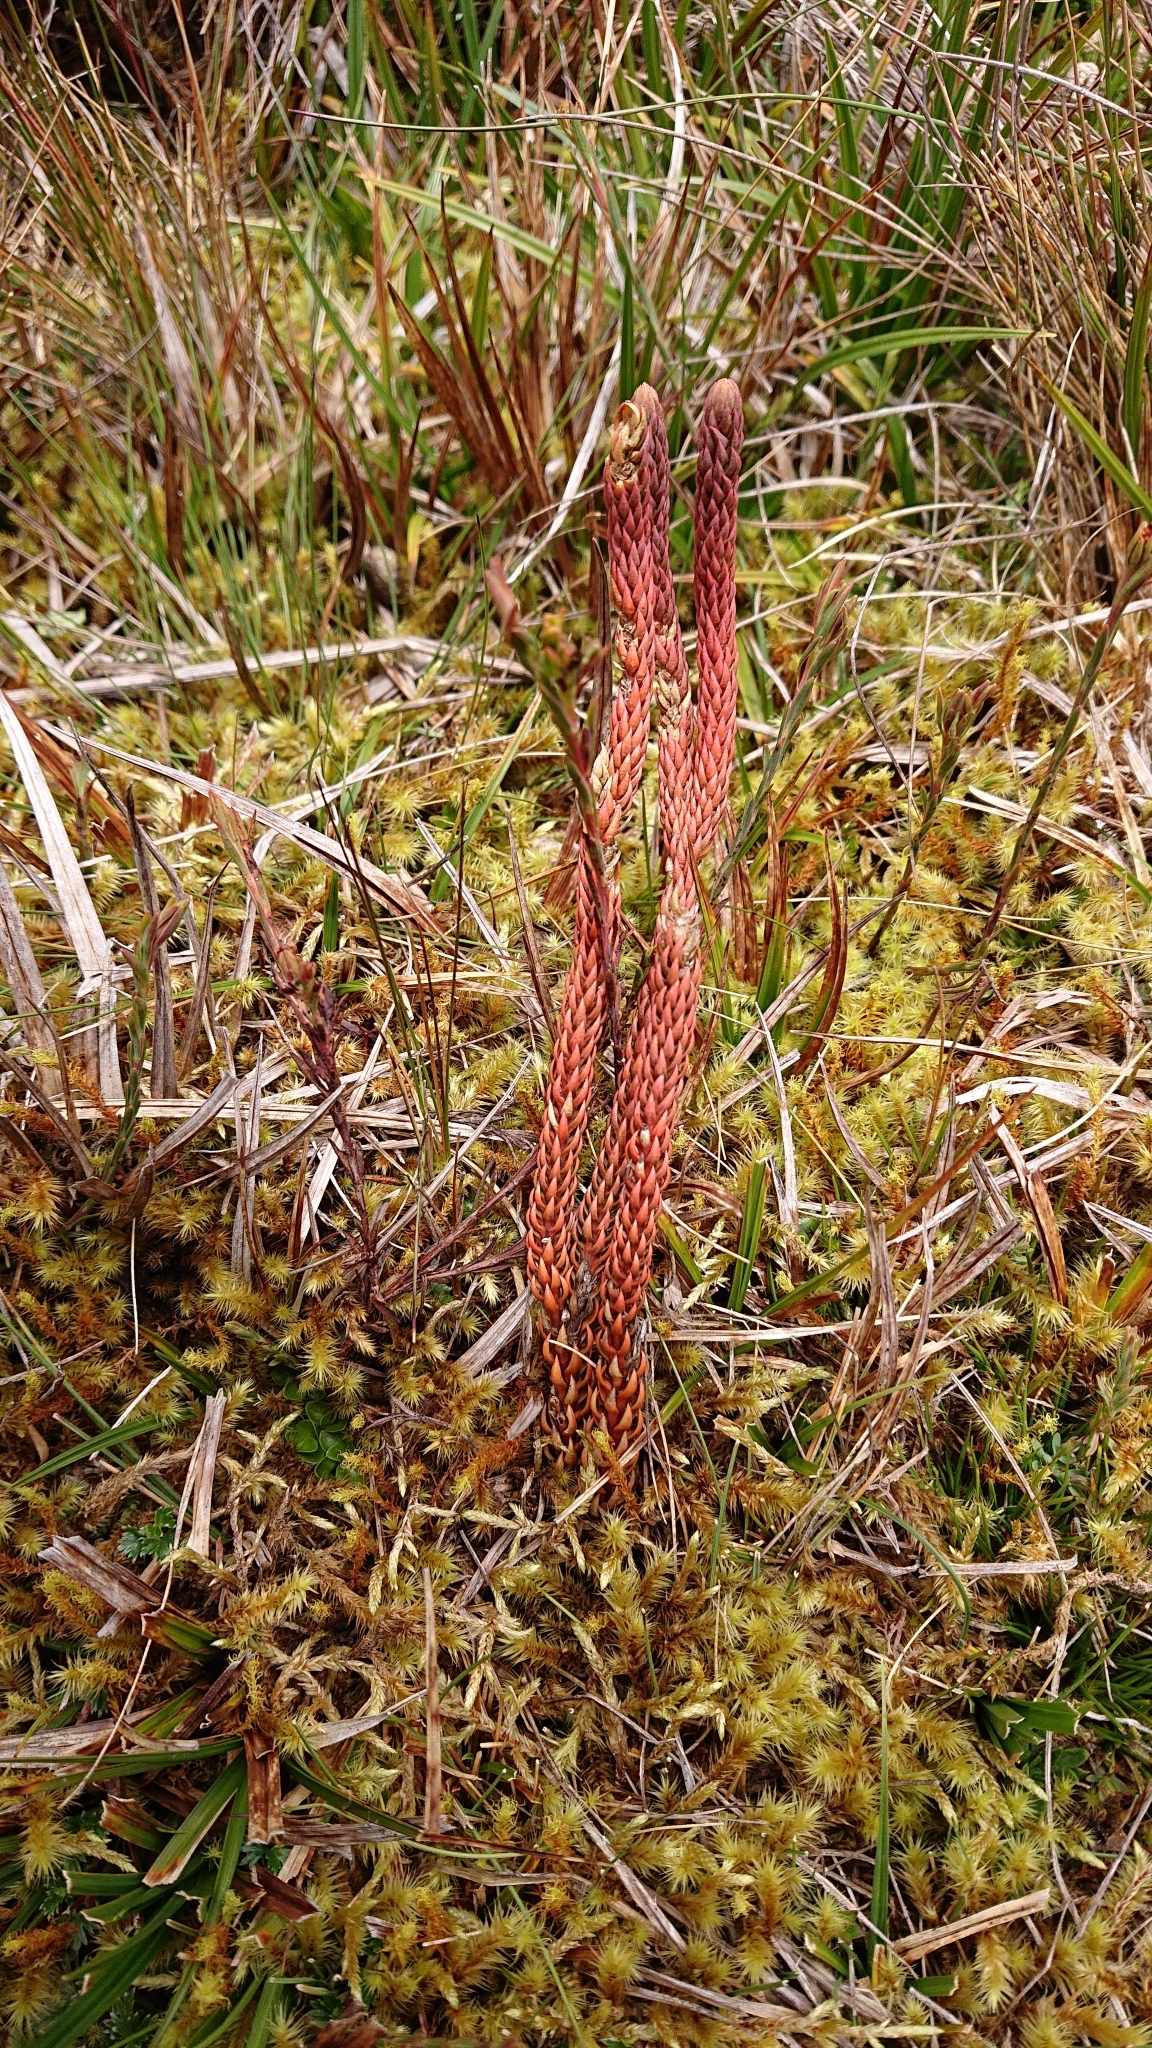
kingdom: Plantae
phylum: Tracheophyta
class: Lycopodiopsida
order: Lycopodiales
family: Lycopodiaceae
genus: Phlegmariurus
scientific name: Phlegmariurus crassus
